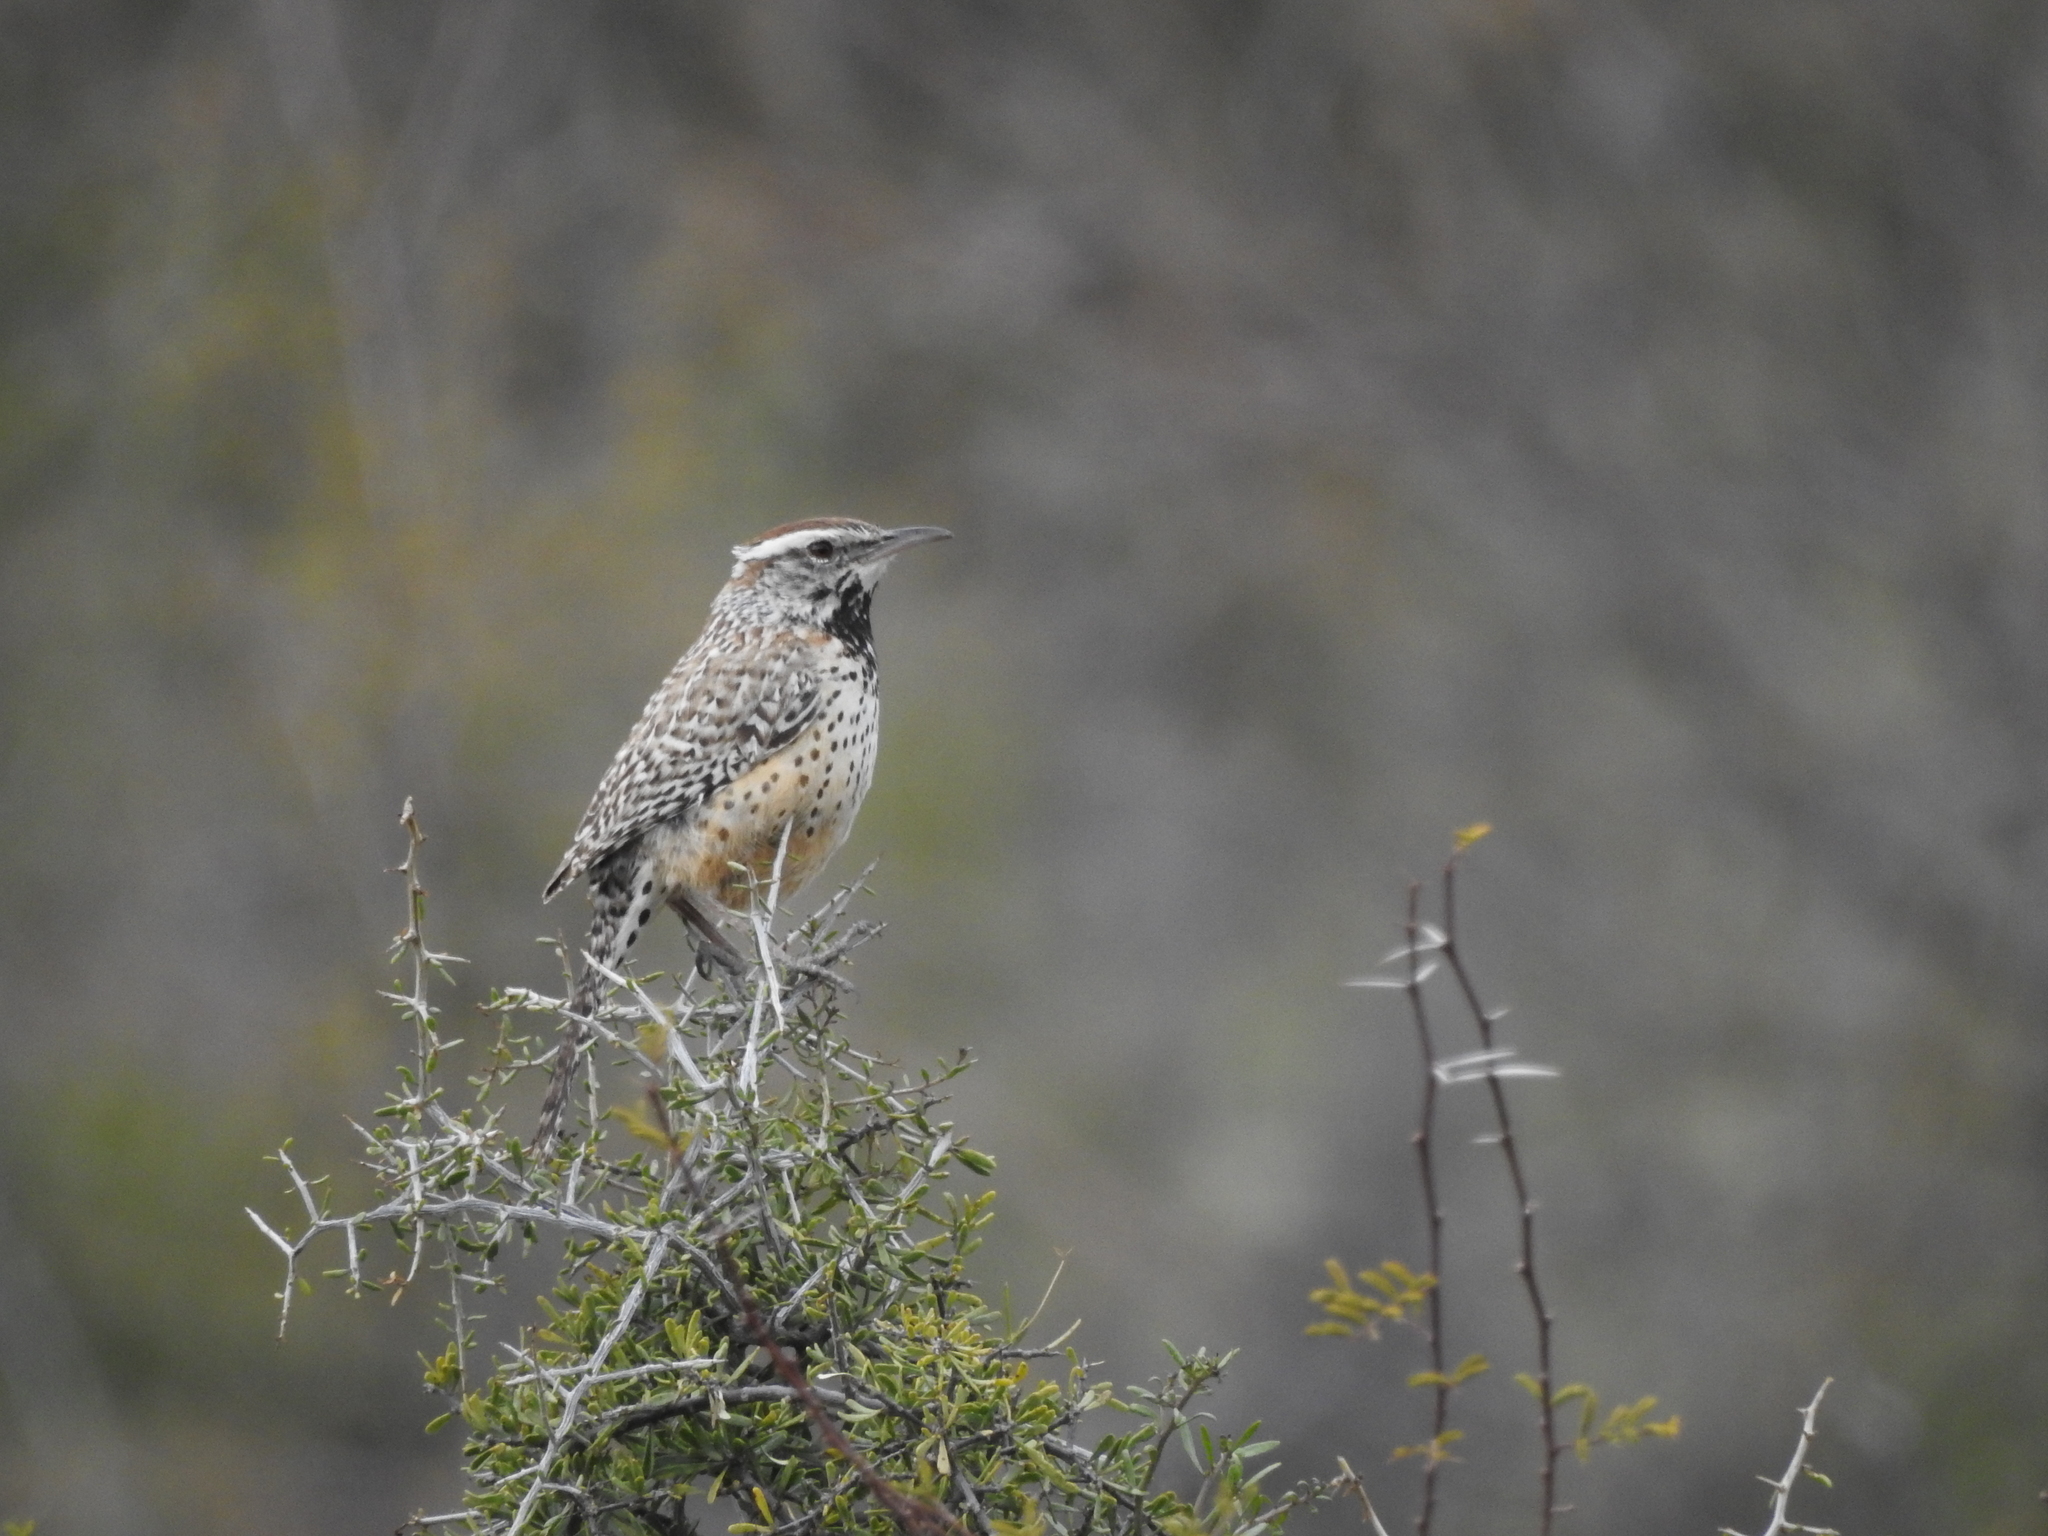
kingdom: Animalia
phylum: Chordata
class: Aves
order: Passeriformes
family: Troglodytidae
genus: Campylorhynchus
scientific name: Campylorhynchus brunneicapillus
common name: Cactus wren
